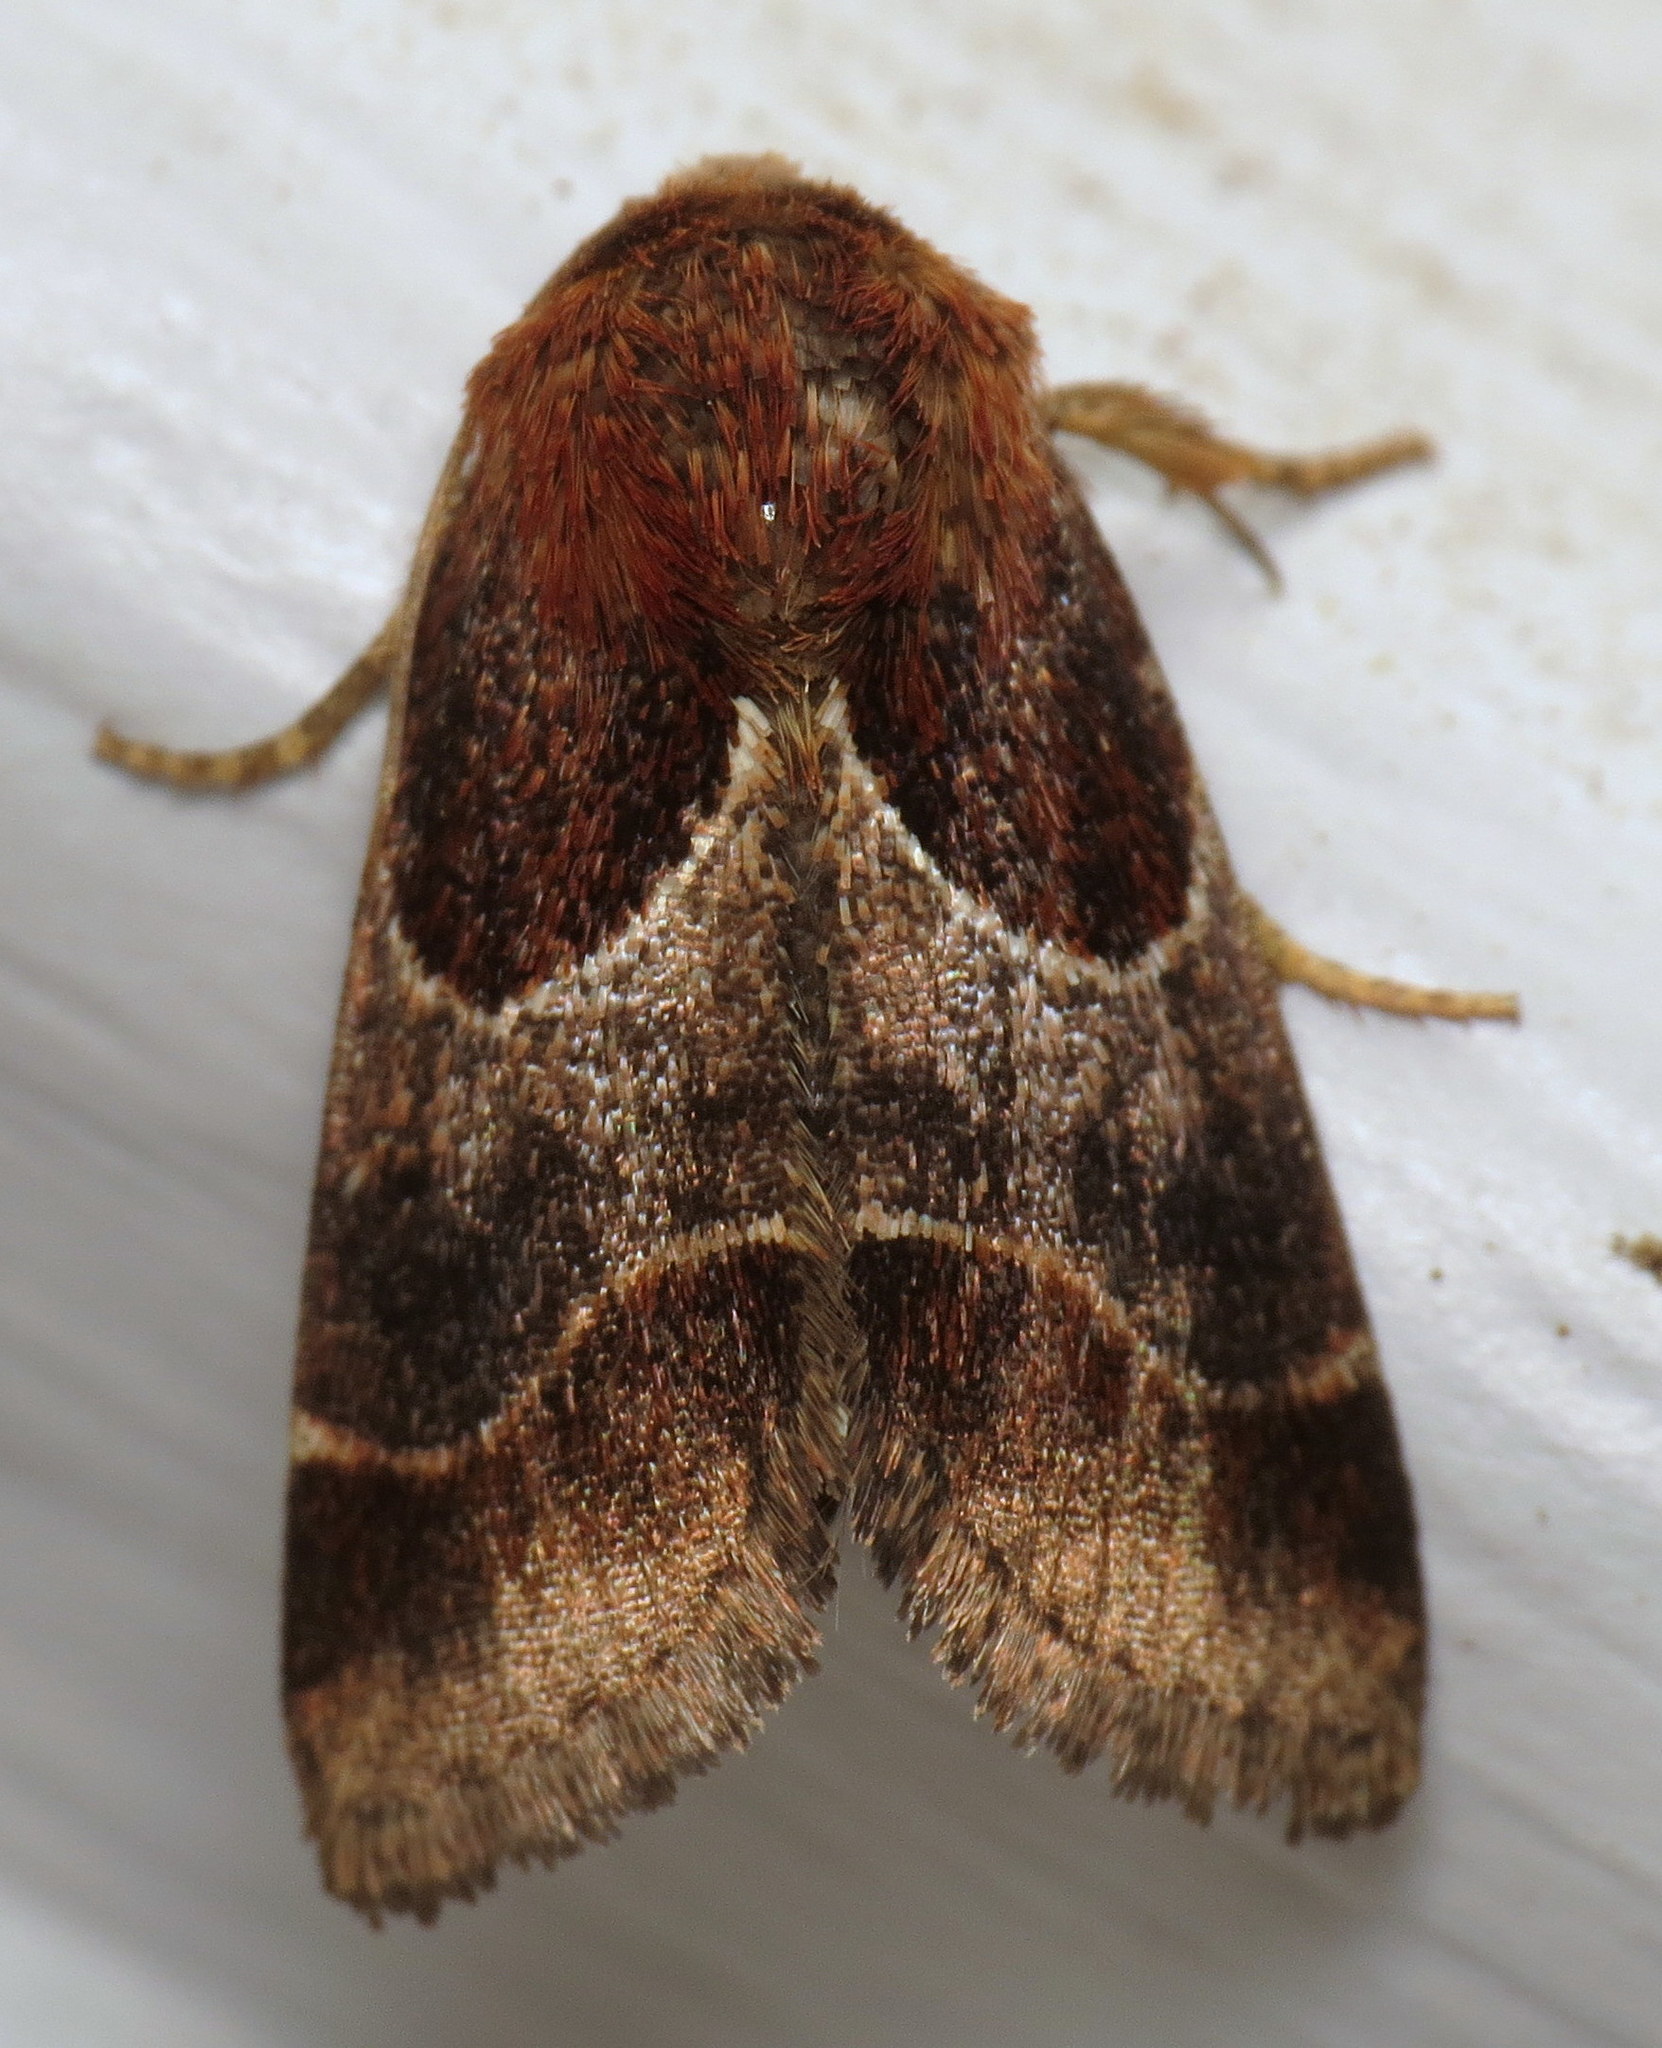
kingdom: Animalia
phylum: Arthropoda
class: Insecta
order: Lepidoptera
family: Noctuidae
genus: Schinia
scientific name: Schinia arcigera
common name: Arcigera flower moth
